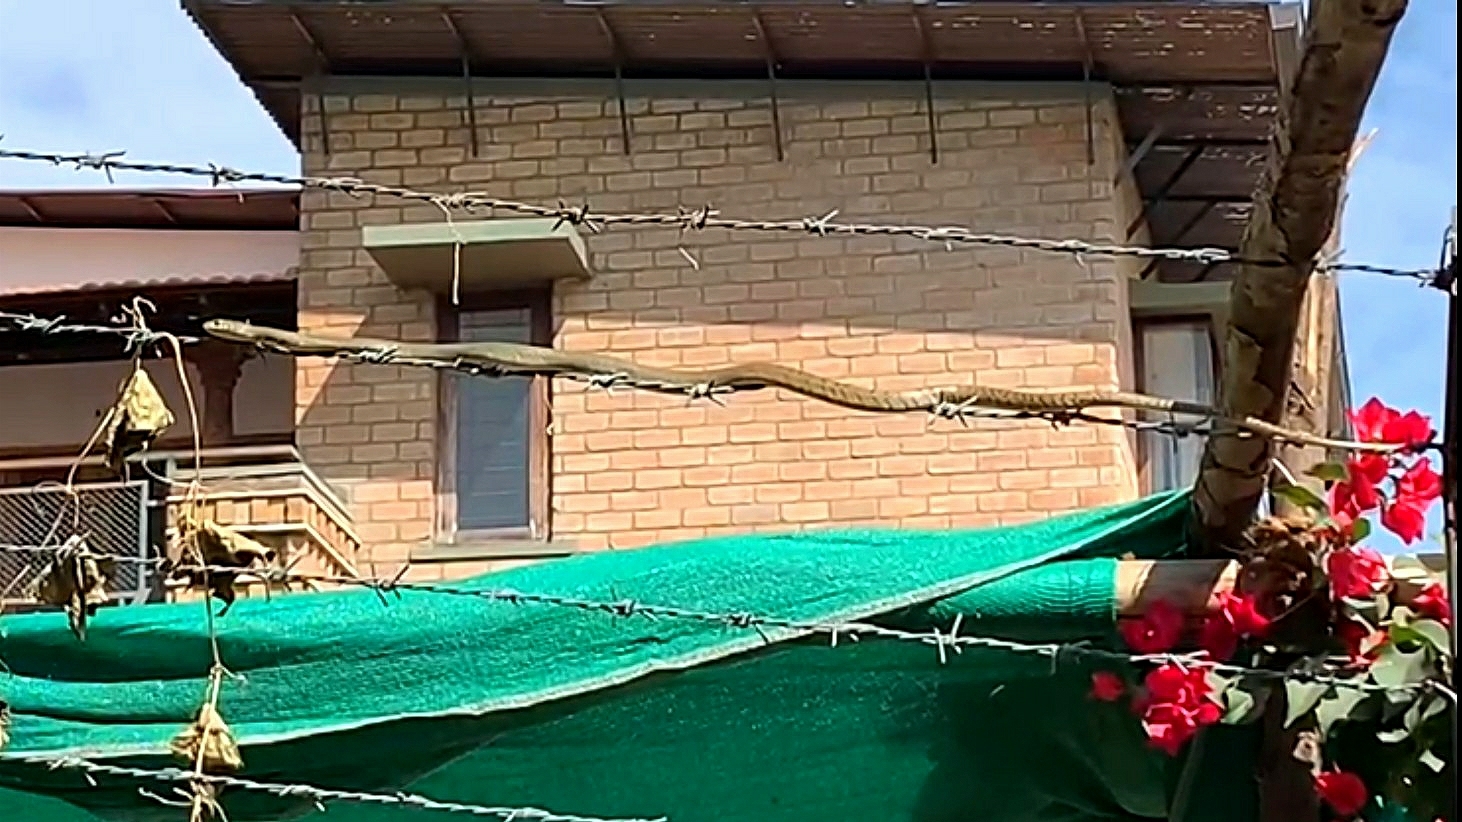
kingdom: Animalia
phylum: Chordata
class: Squamata
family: Colubridae
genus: Ptyas
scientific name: Ptyas mucosa
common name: Oriental ratsnake
